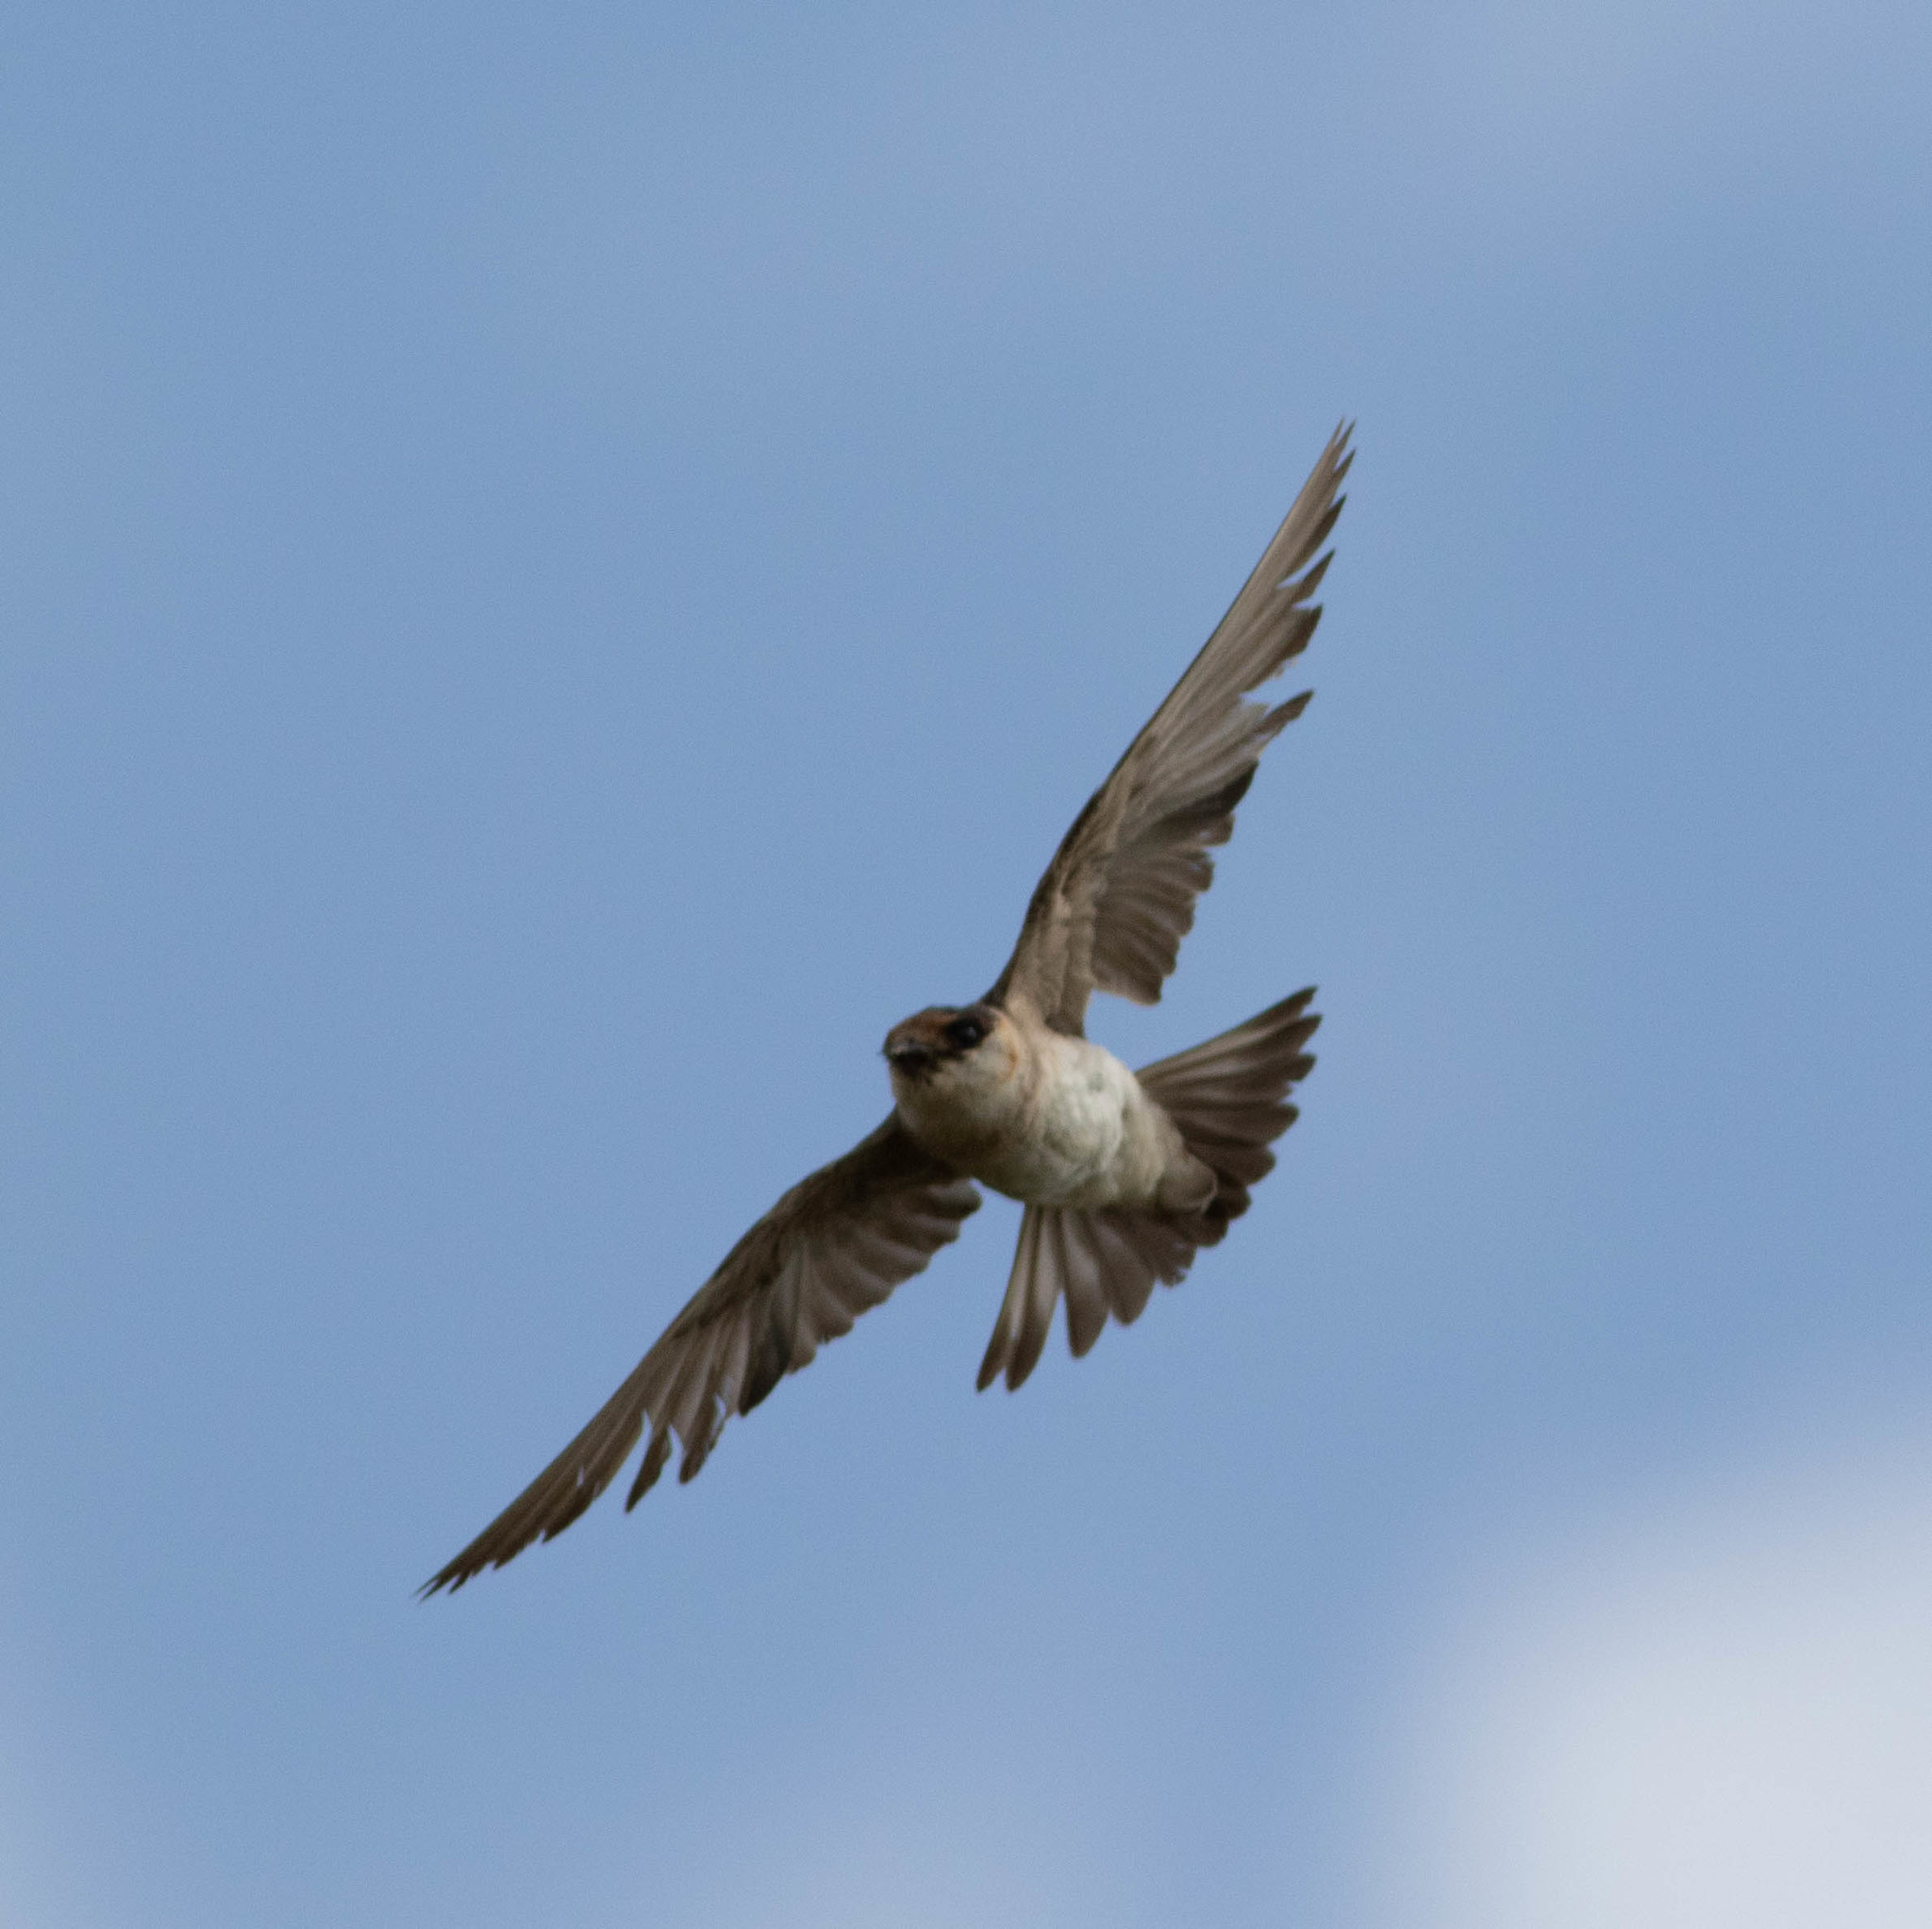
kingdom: Animalia
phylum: Chordata
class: Aves
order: Passeriformes
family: Hirundinidae
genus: Petrochelidon
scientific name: Petrochelidon fulva
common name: Cave swallow
